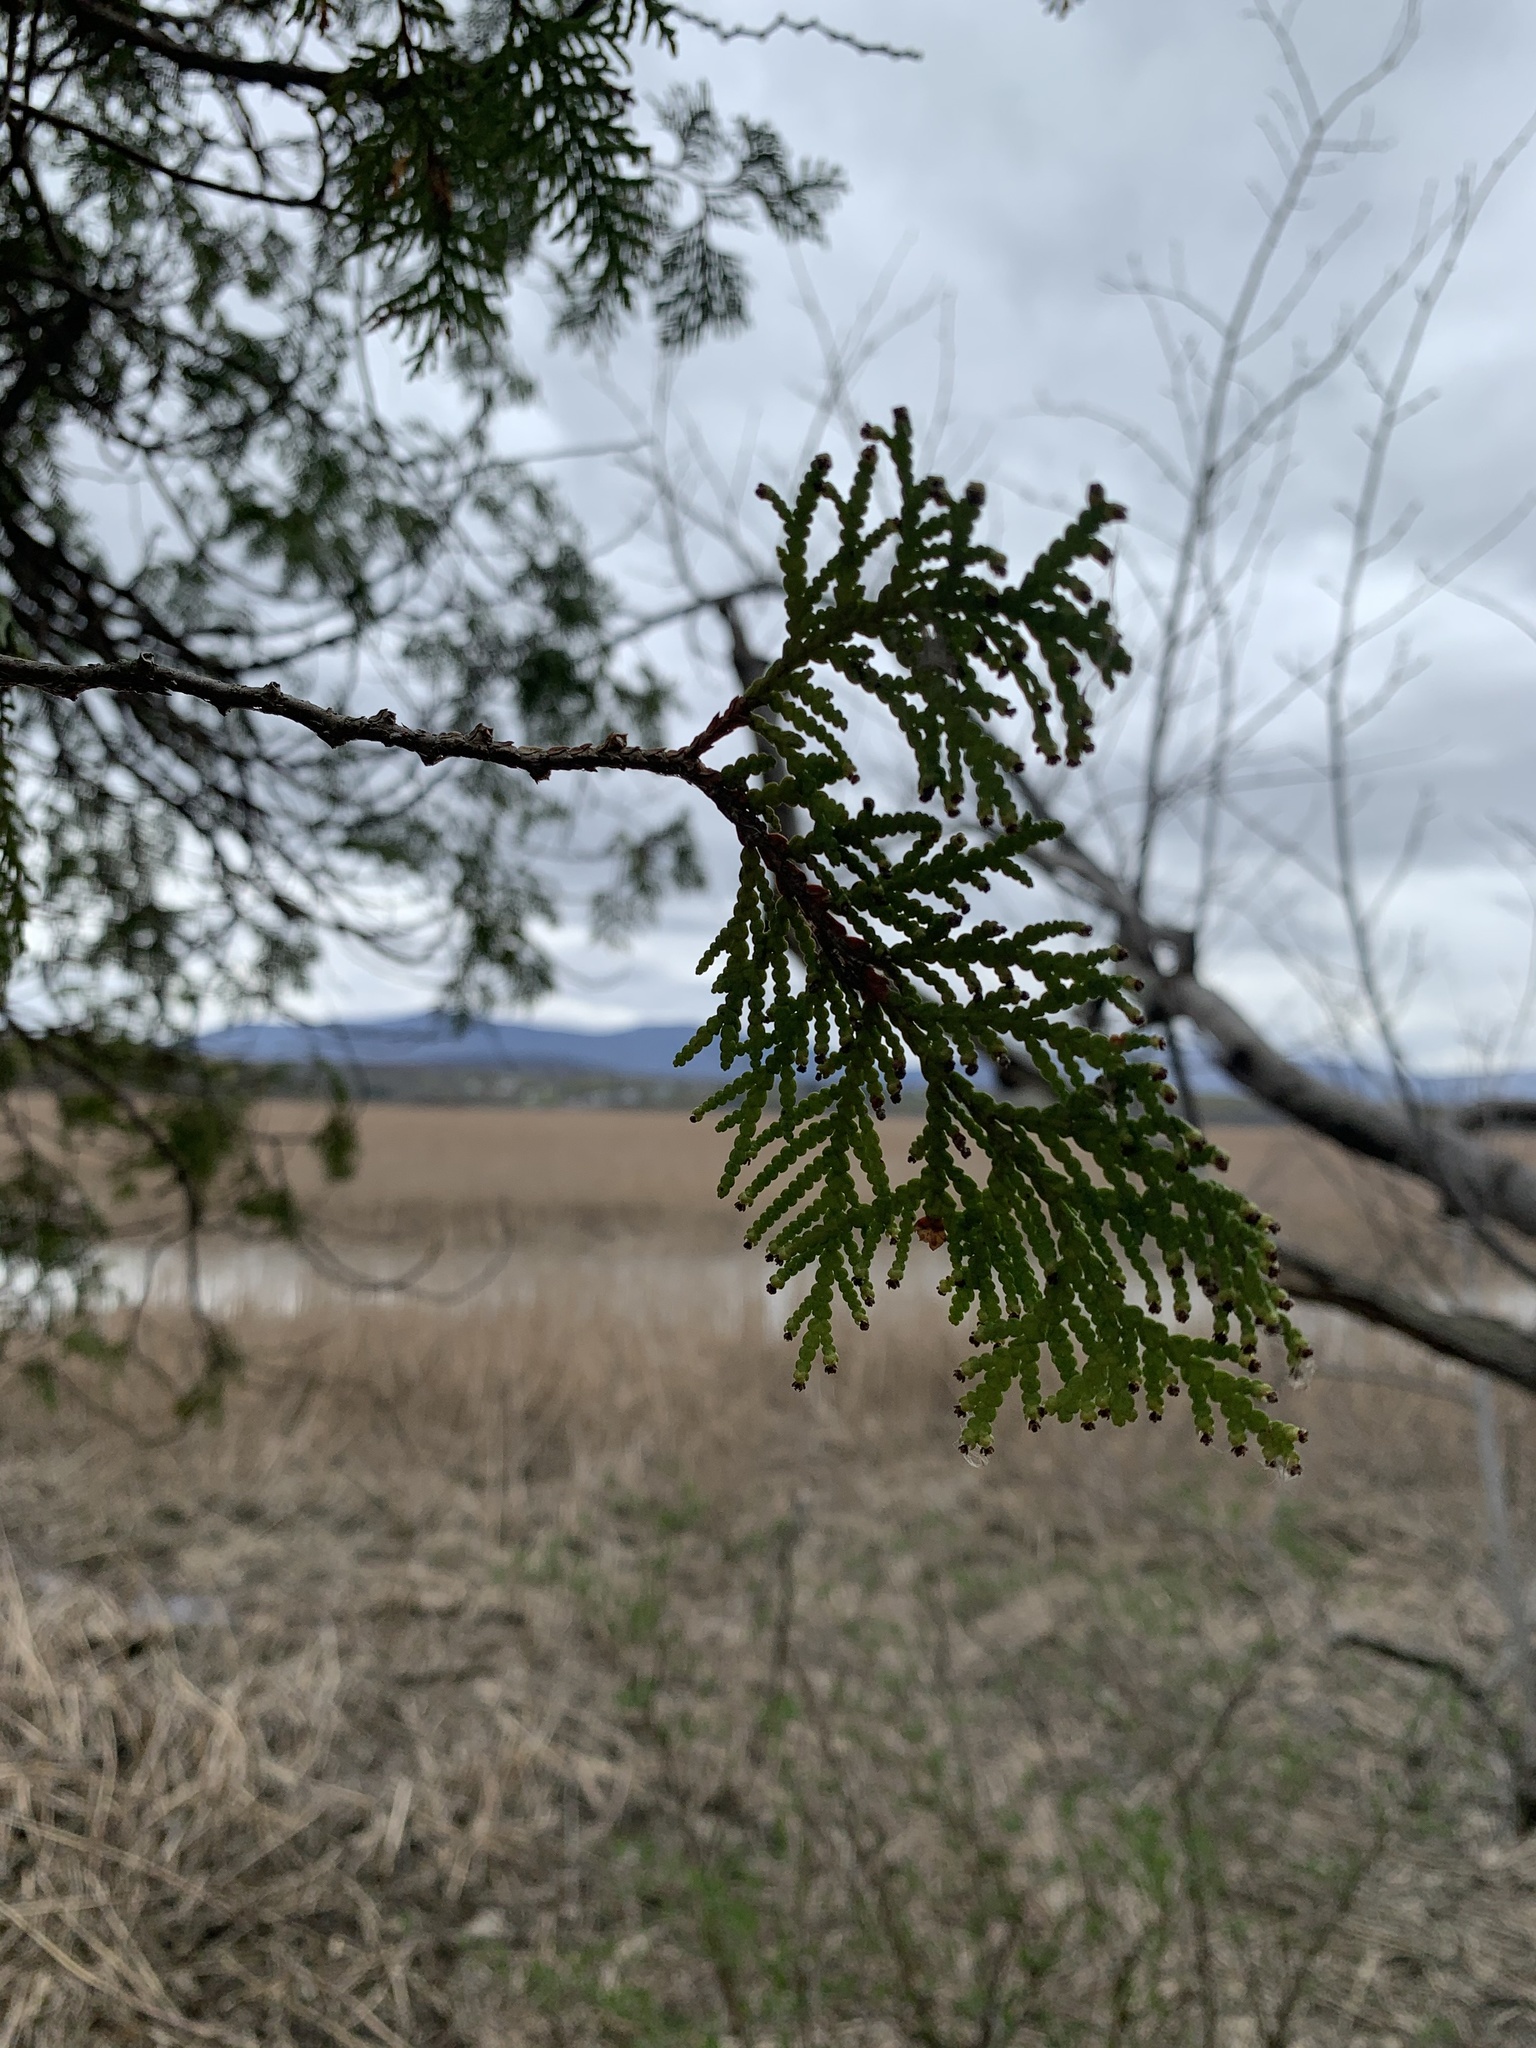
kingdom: Plantae
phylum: Tracheophyta
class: Pinopsida
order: Pinales
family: Cupressaceae
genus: Thuja
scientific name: Thuja occidentalis
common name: Northern white-cedar
